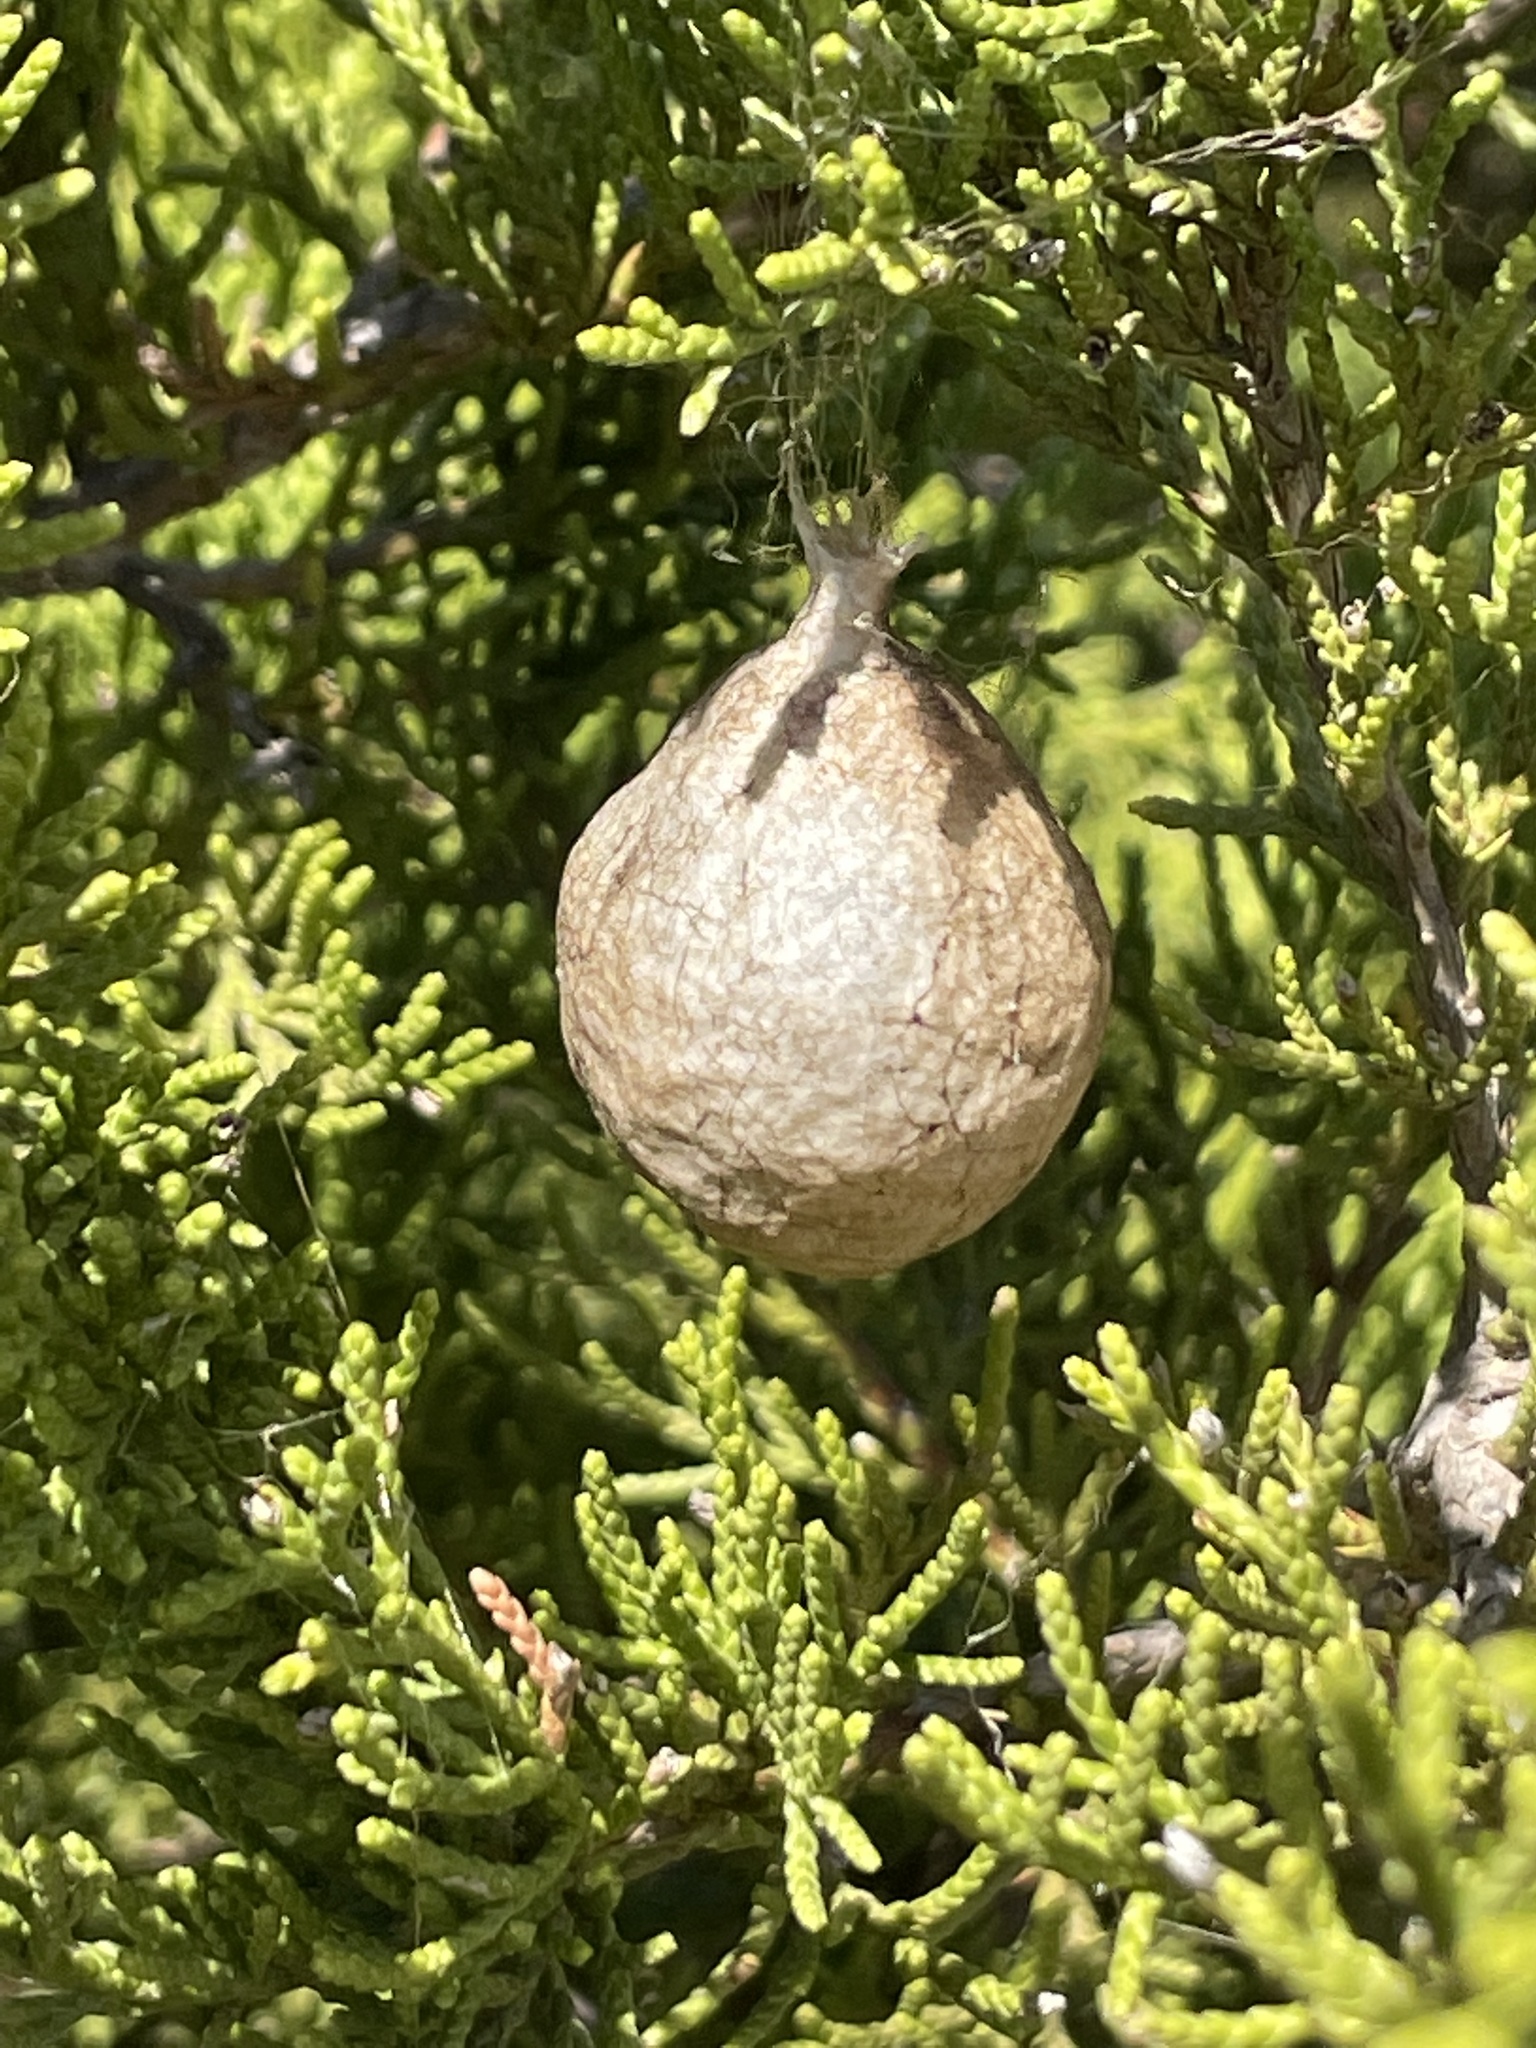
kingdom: Animalia
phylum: Arthropoda
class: Arachnida
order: Araneae
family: Araneidae
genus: Argiope
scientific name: Argiope aurantia
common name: Orb weavers
